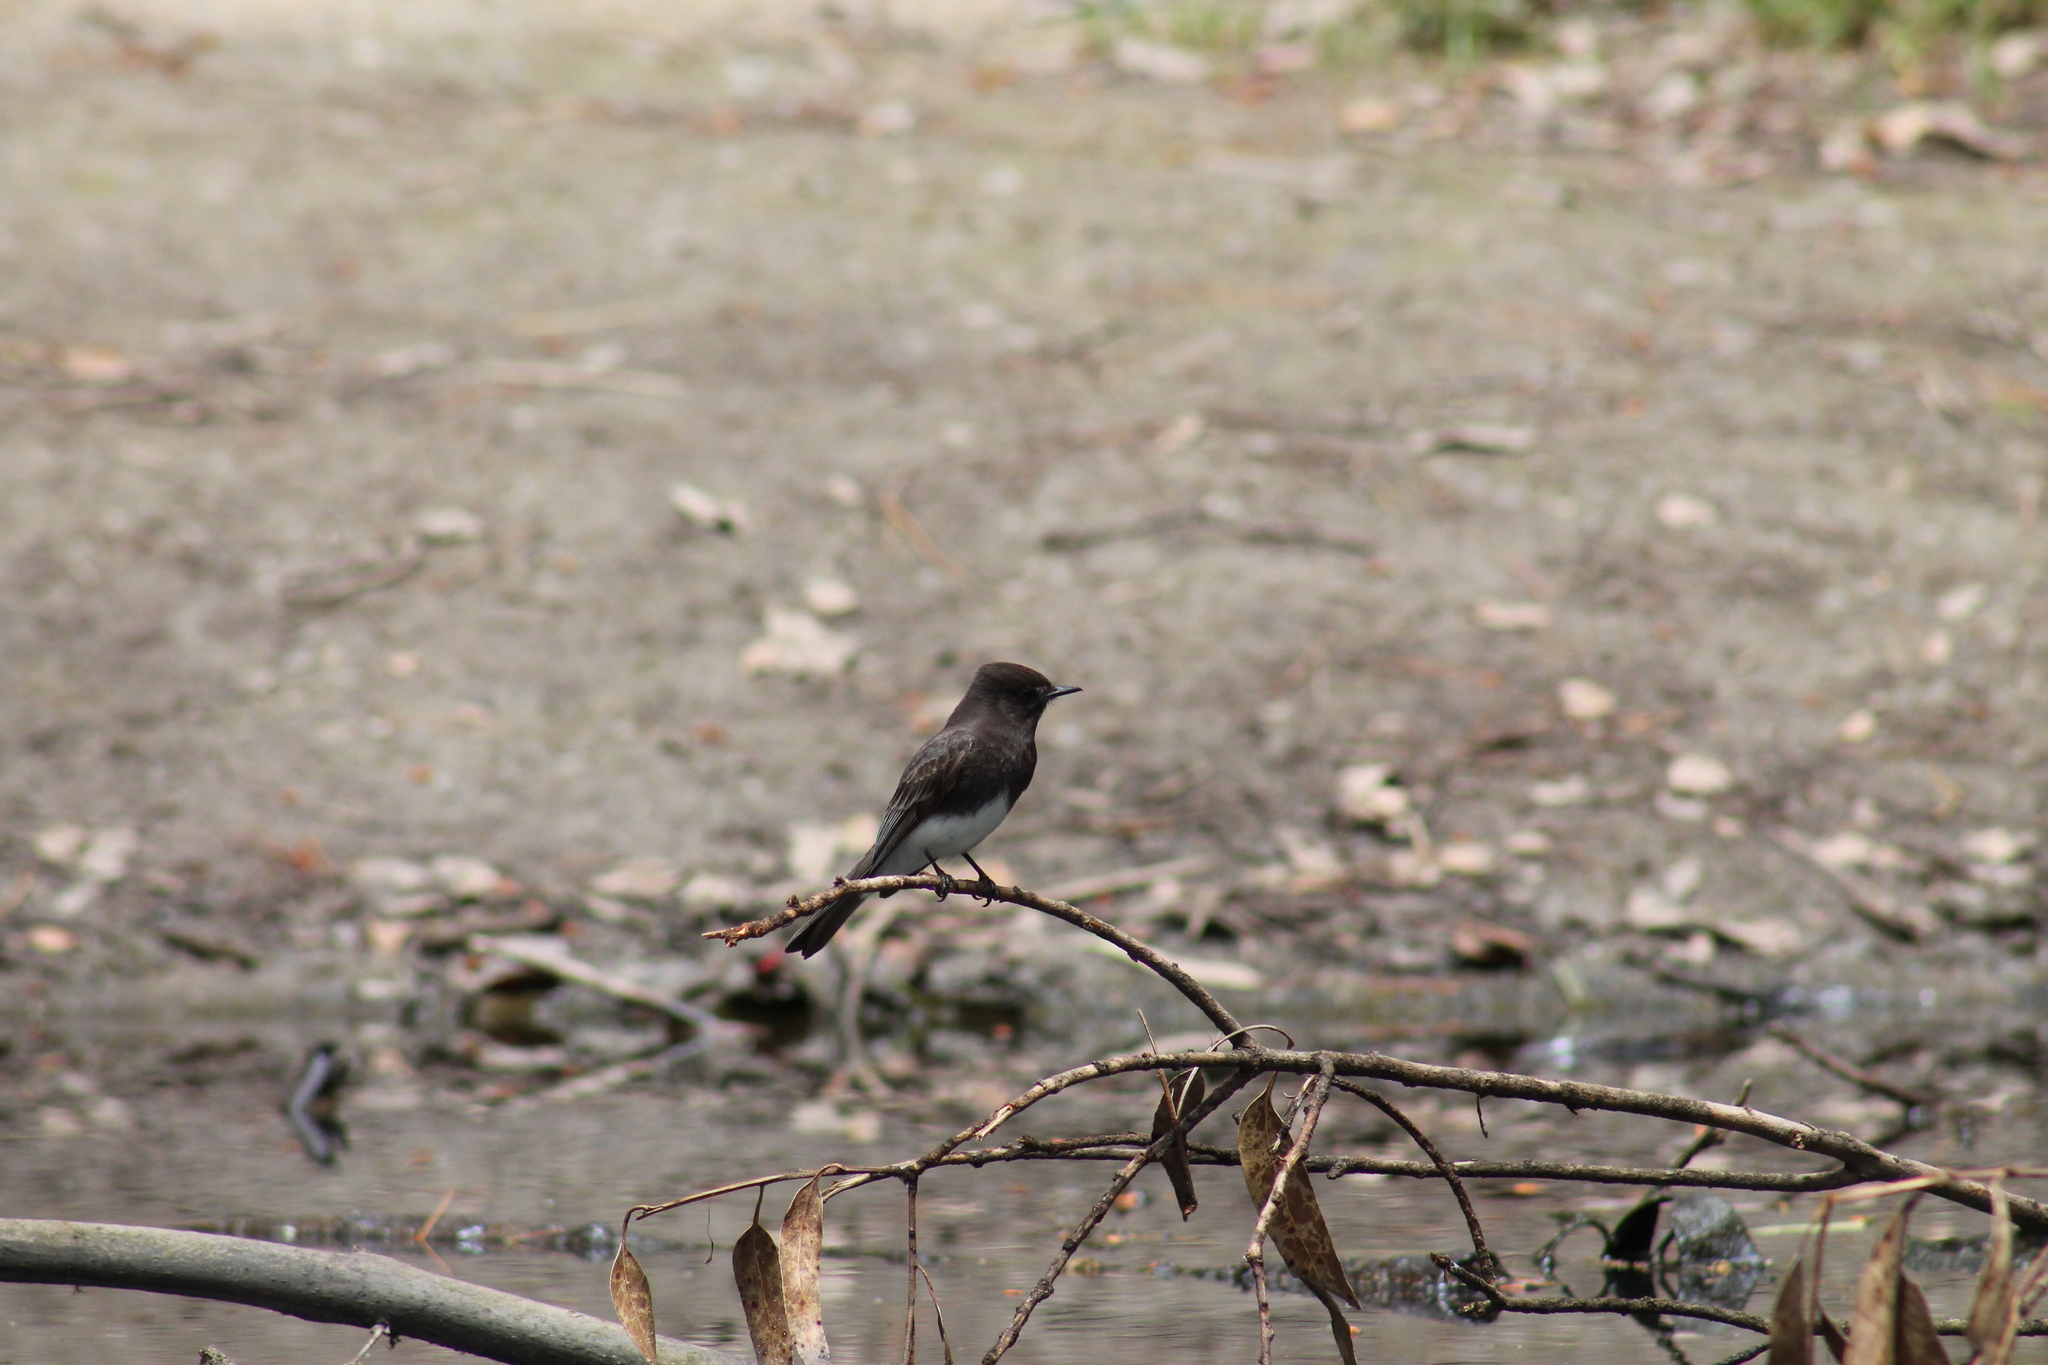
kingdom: Animalia
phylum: Chordata
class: Aves
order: Passeriformes
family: Tyrannidae
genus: Sayornis
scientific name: Sayornis nigricans
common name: Black phoebe
